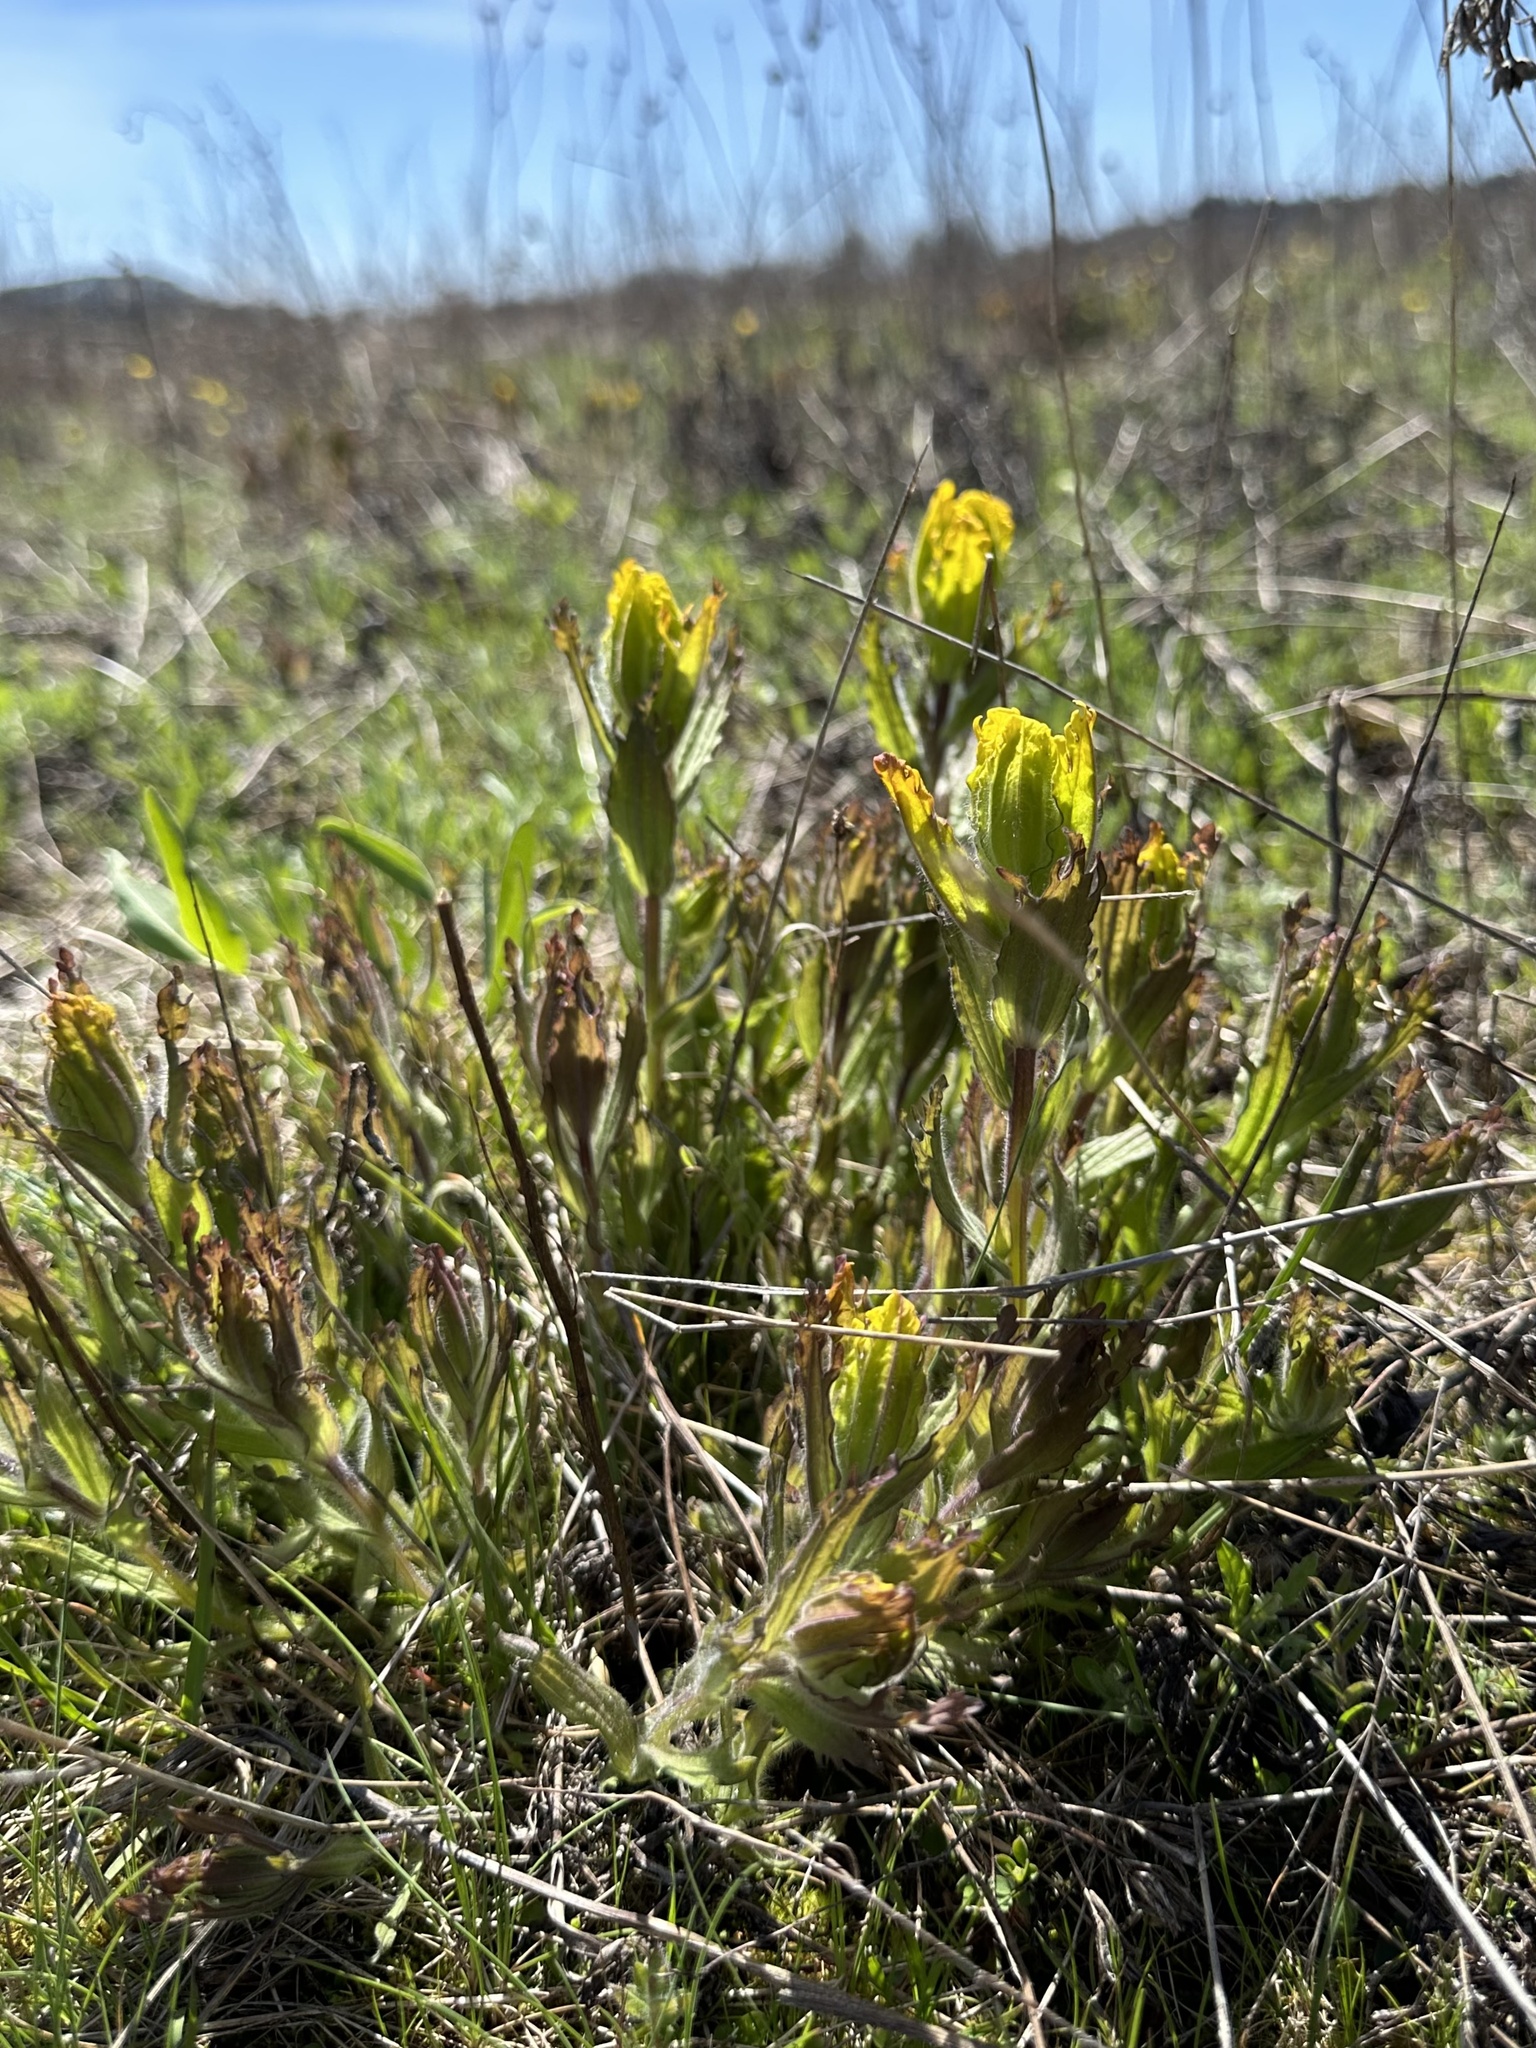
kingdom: Plantae
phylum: Tracheophyta
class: Magnoliopsida
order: Lamiales
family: Orobanchaceae
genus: Castilleja
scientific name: Castilleja levisecta
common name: Golden paintbrush
